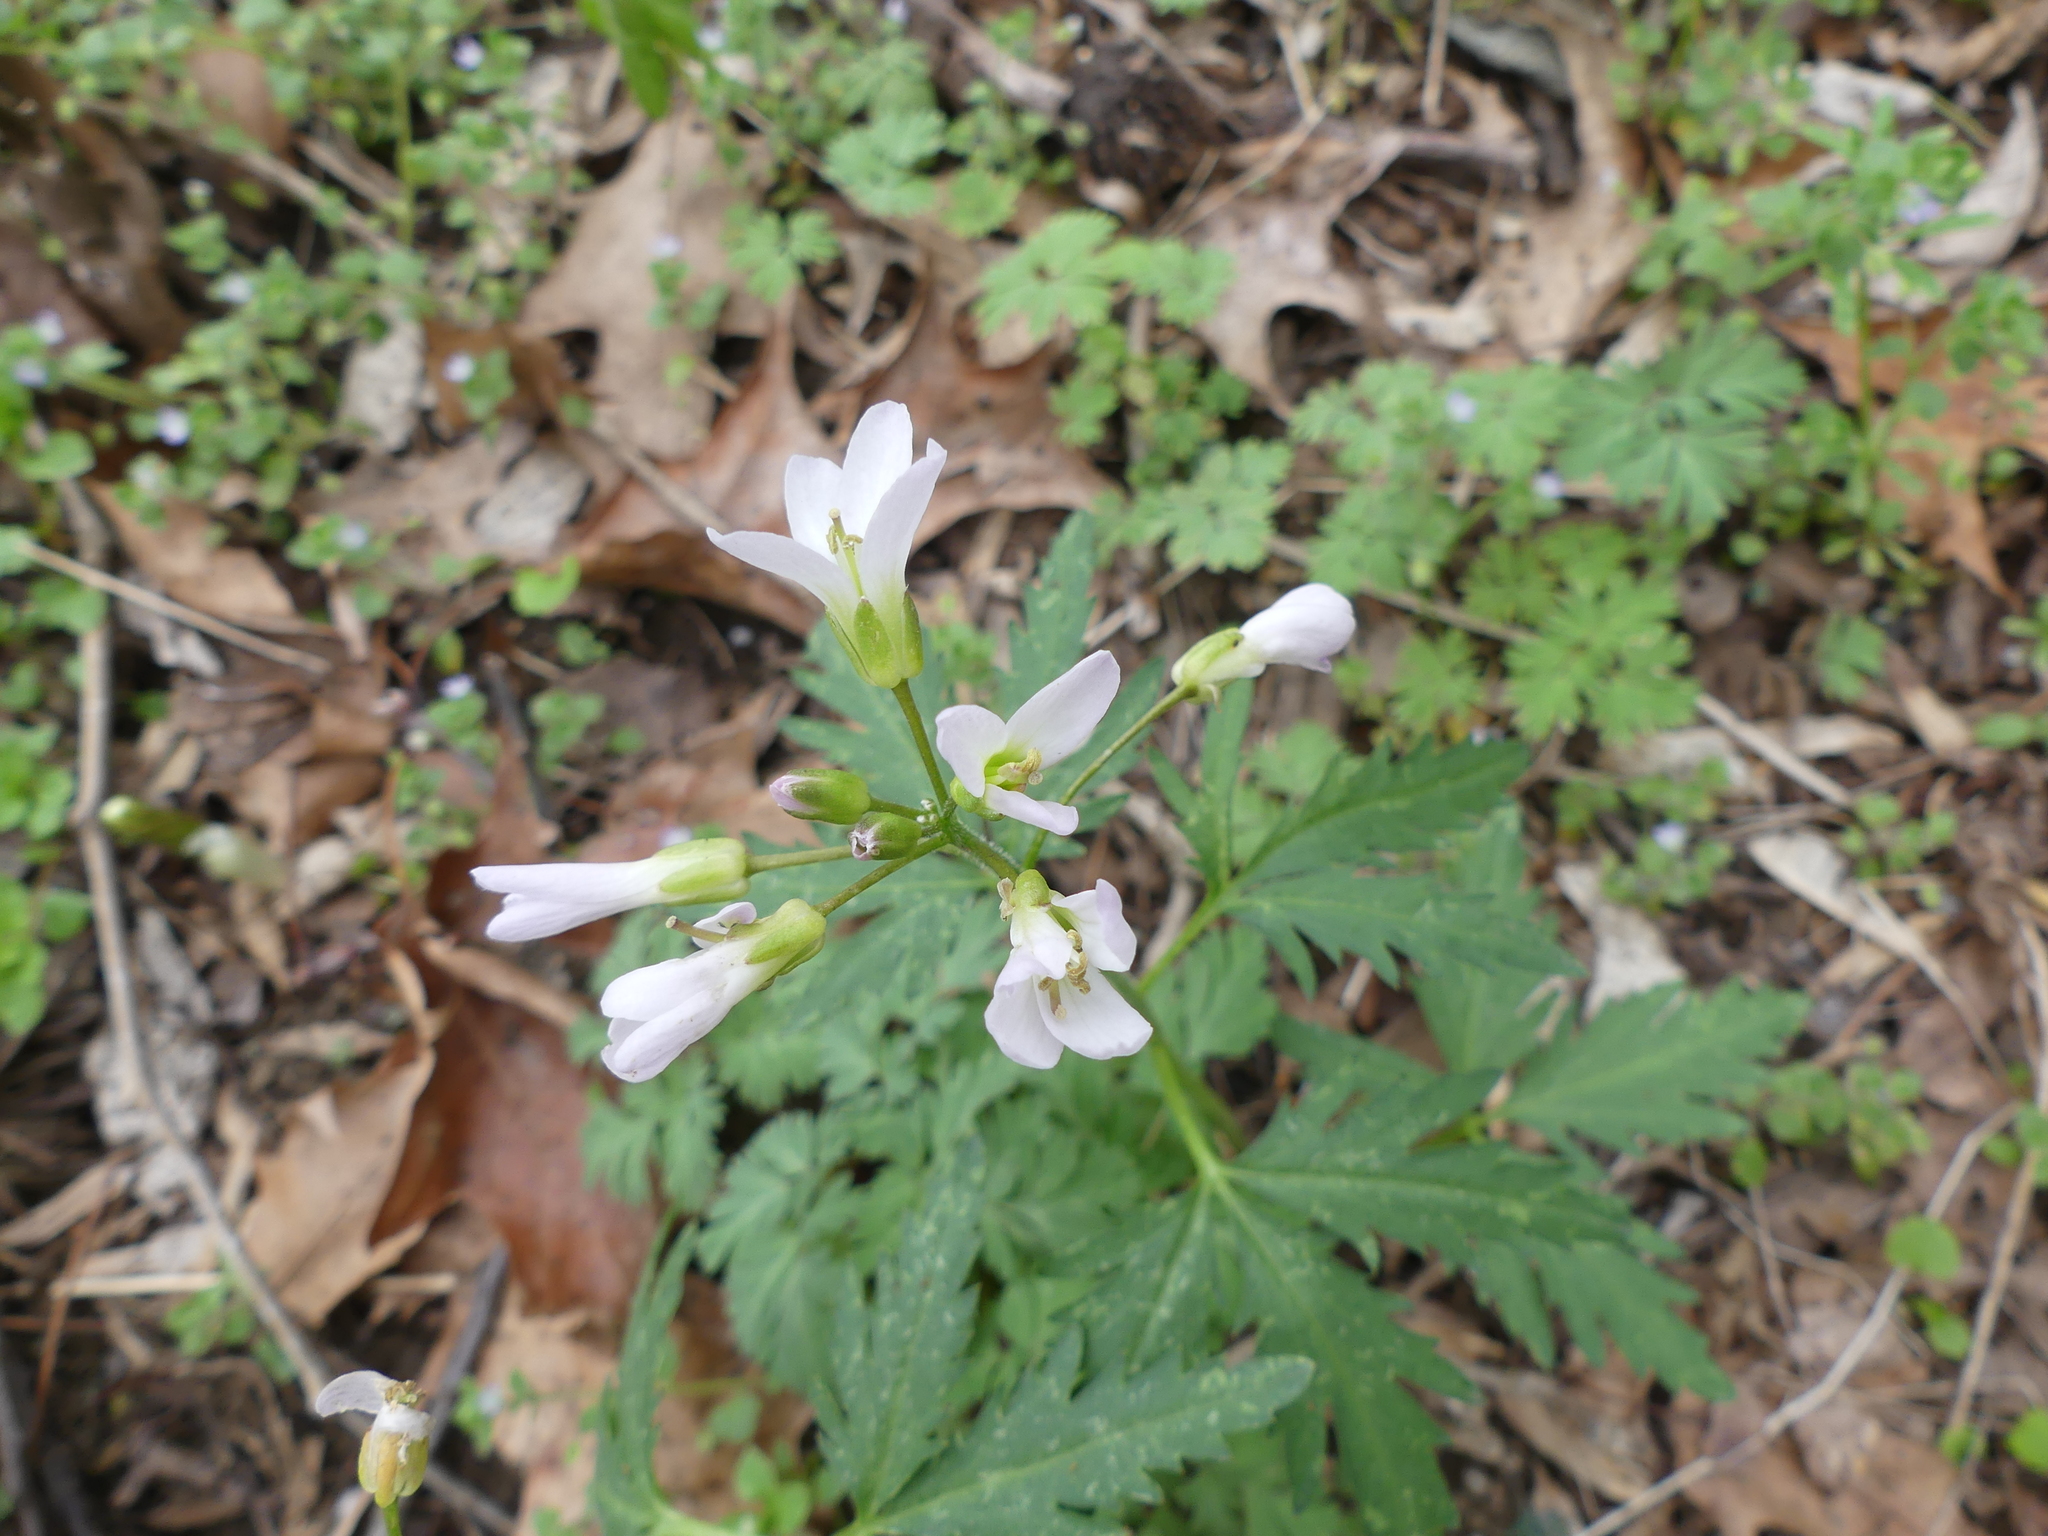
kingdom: Plantae
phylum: Tracheophyta
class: Magnoliopsida
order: Brassicales
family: Brassicaceae
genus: Cardamine
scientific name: Cardamine concatenata
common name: Cut-leaf toothcup
